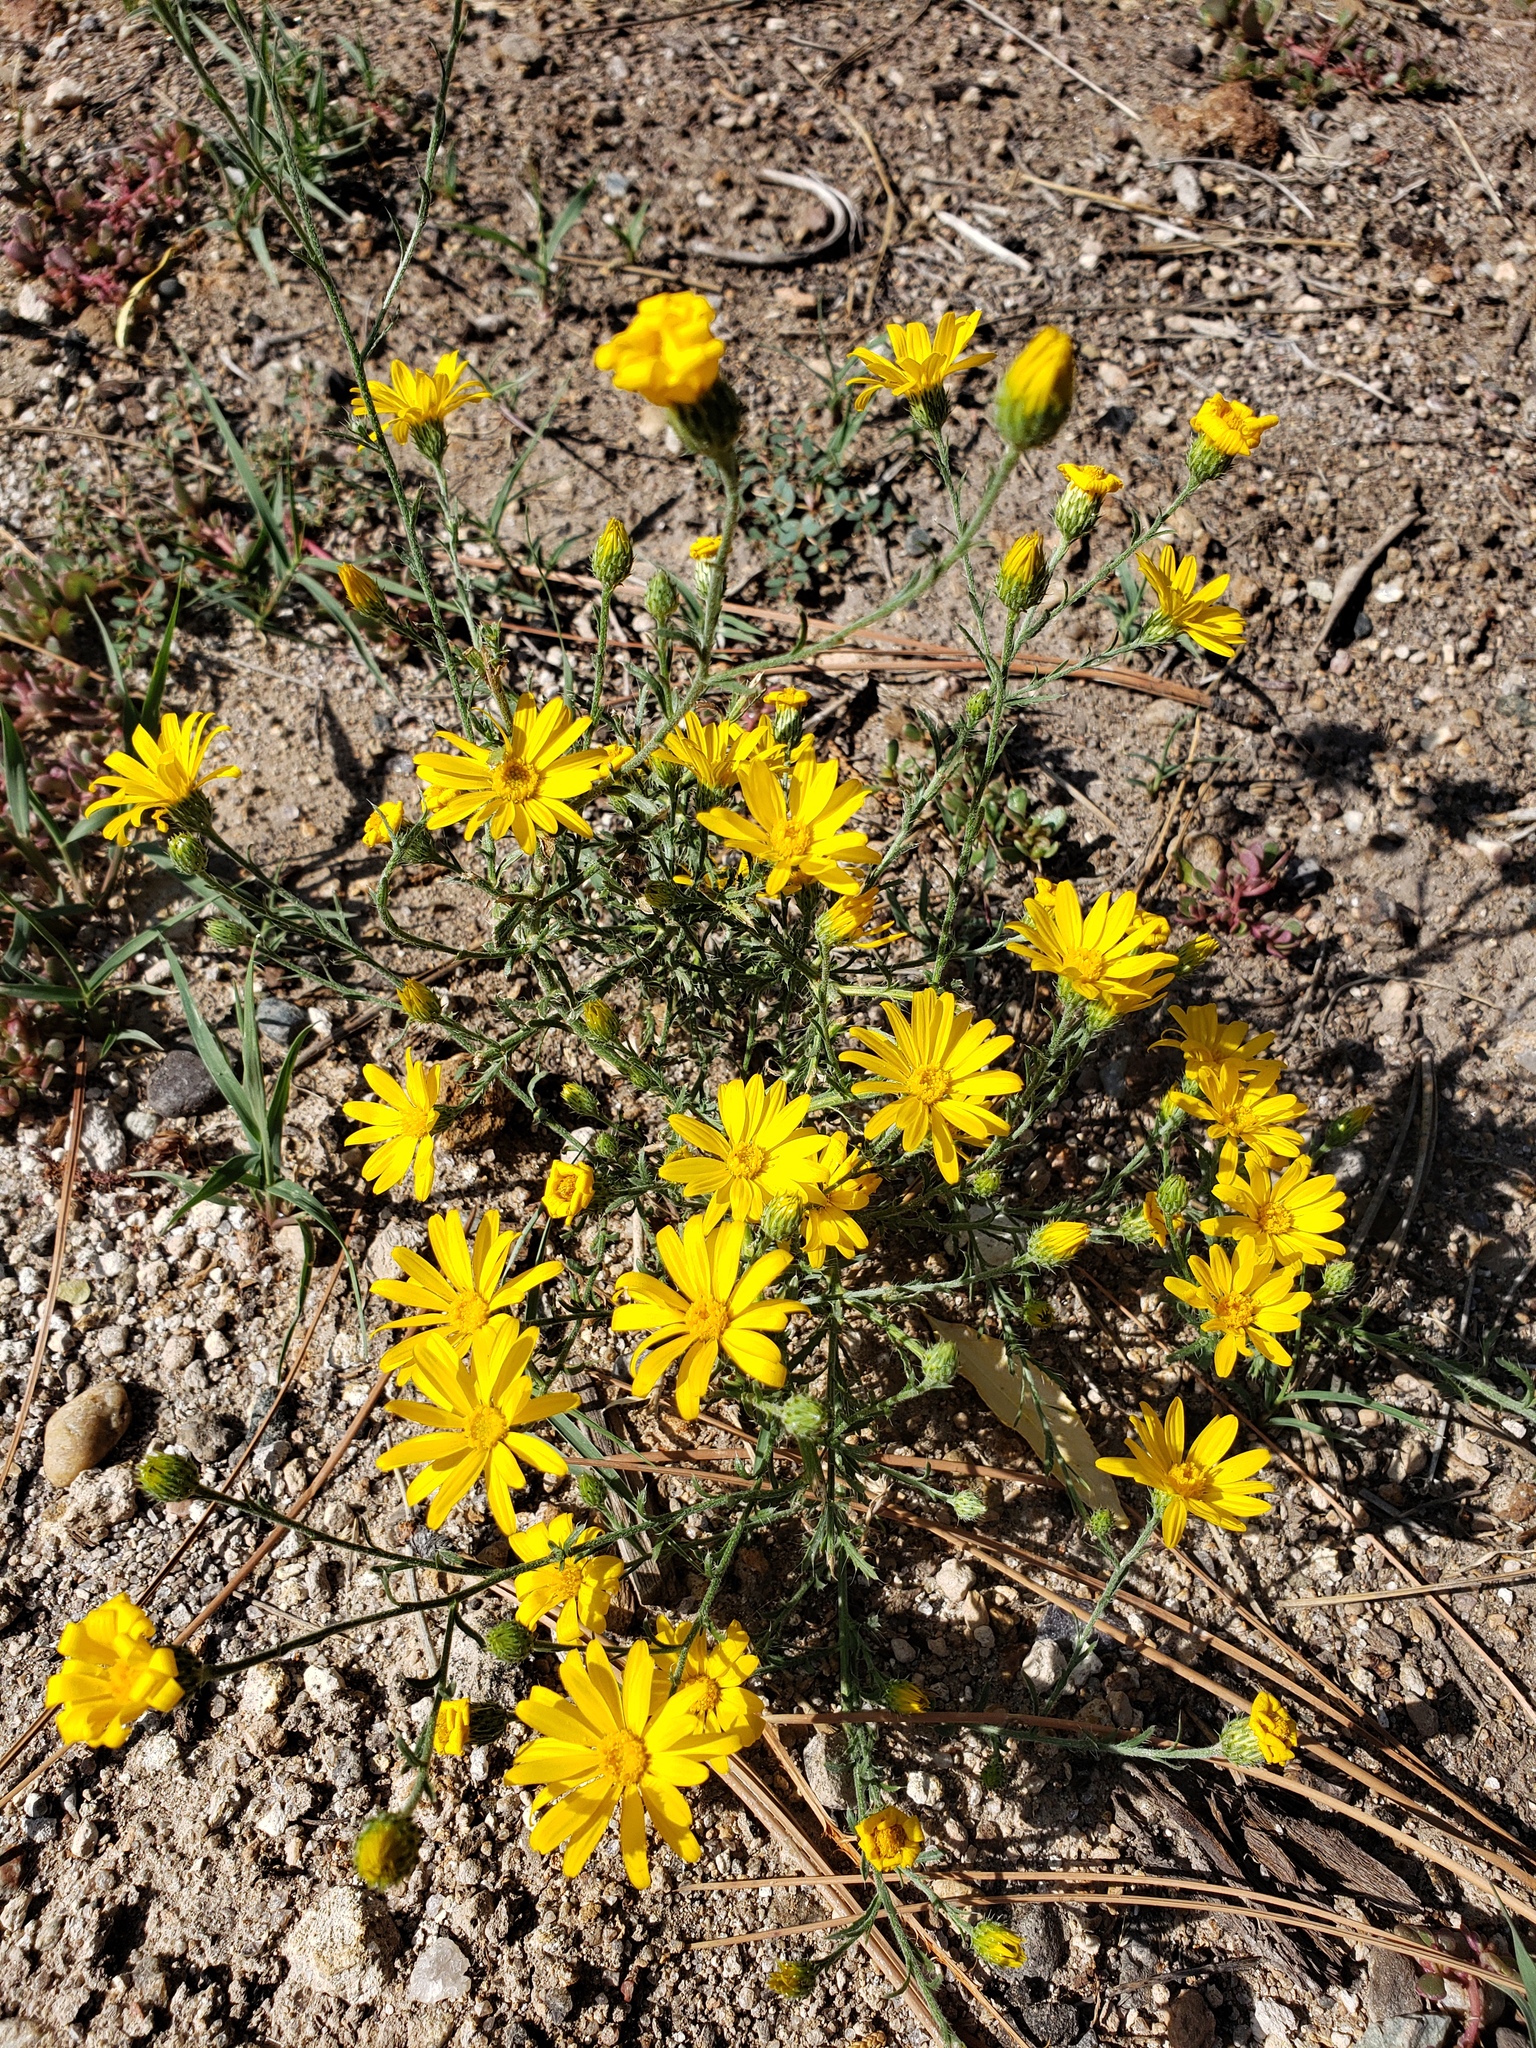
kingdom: Plantae
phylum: Tracheophyta
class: Magnoliopsida
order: Asterales
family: Asteraceae
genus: Xanthisma
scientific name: Xanthisma spinulosum
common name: Spiny goldenweed
